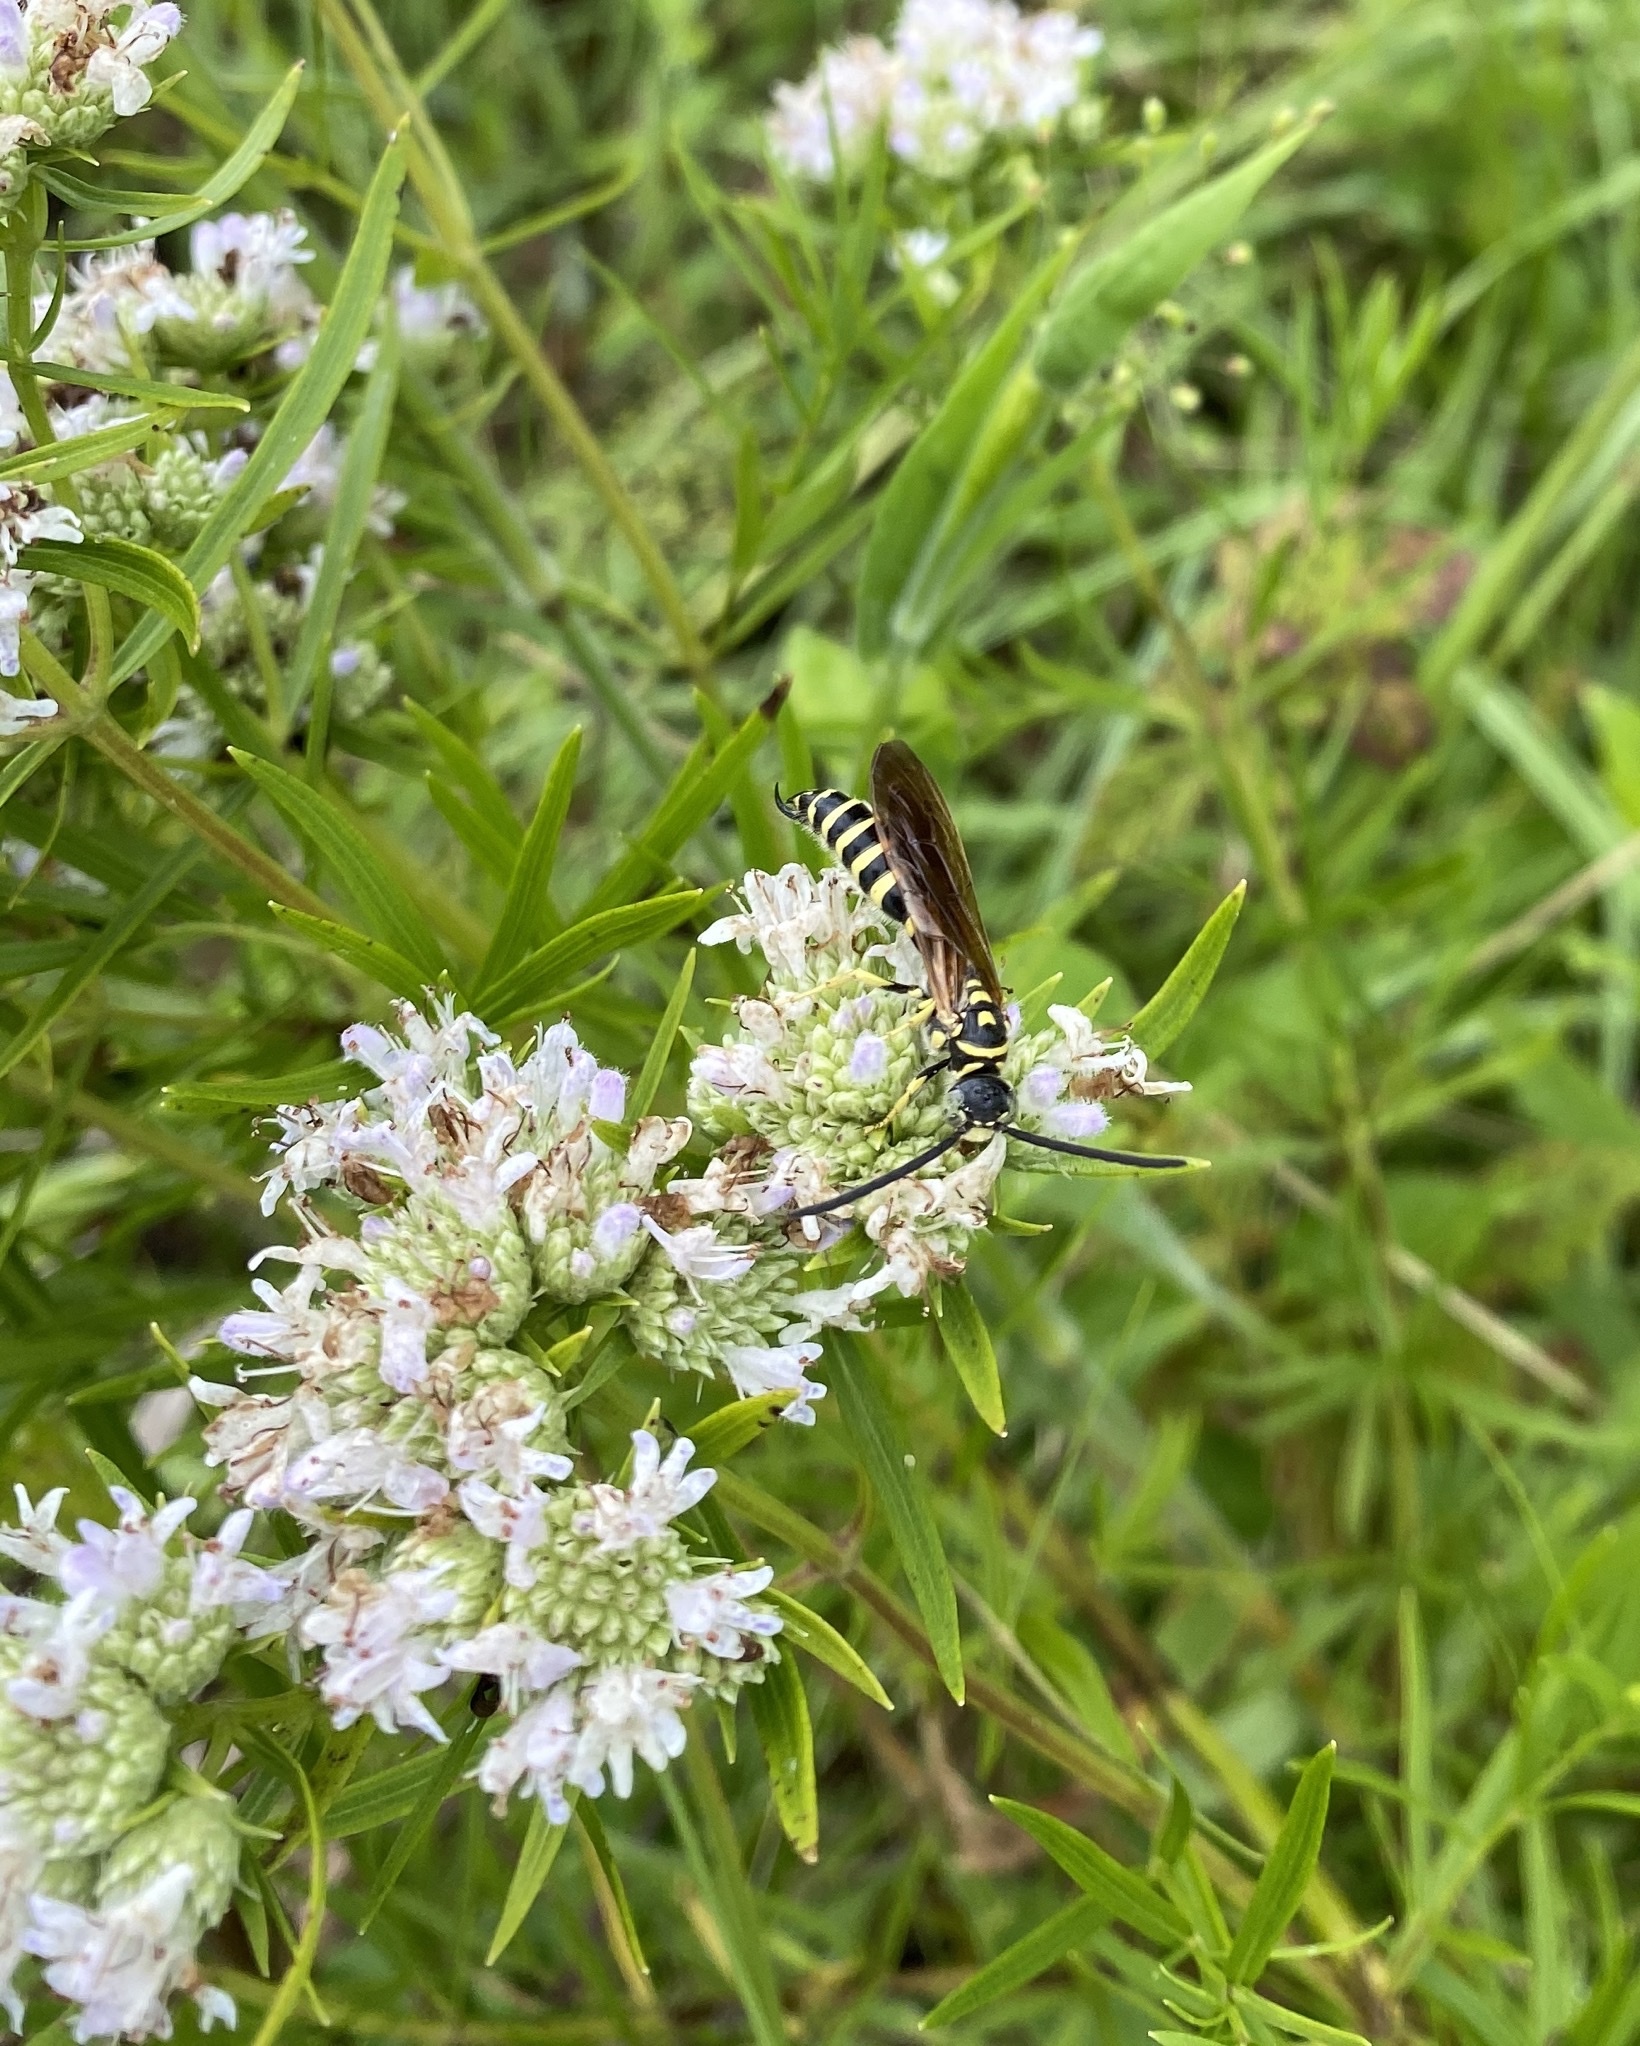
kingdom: Animalia
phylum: Arthropoda
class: Insecta
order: Hymenoptera
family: Tiphiidae
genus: Myzinum
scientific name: Myzinum quinquecinctum
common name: Five-banded thynnid wasp
